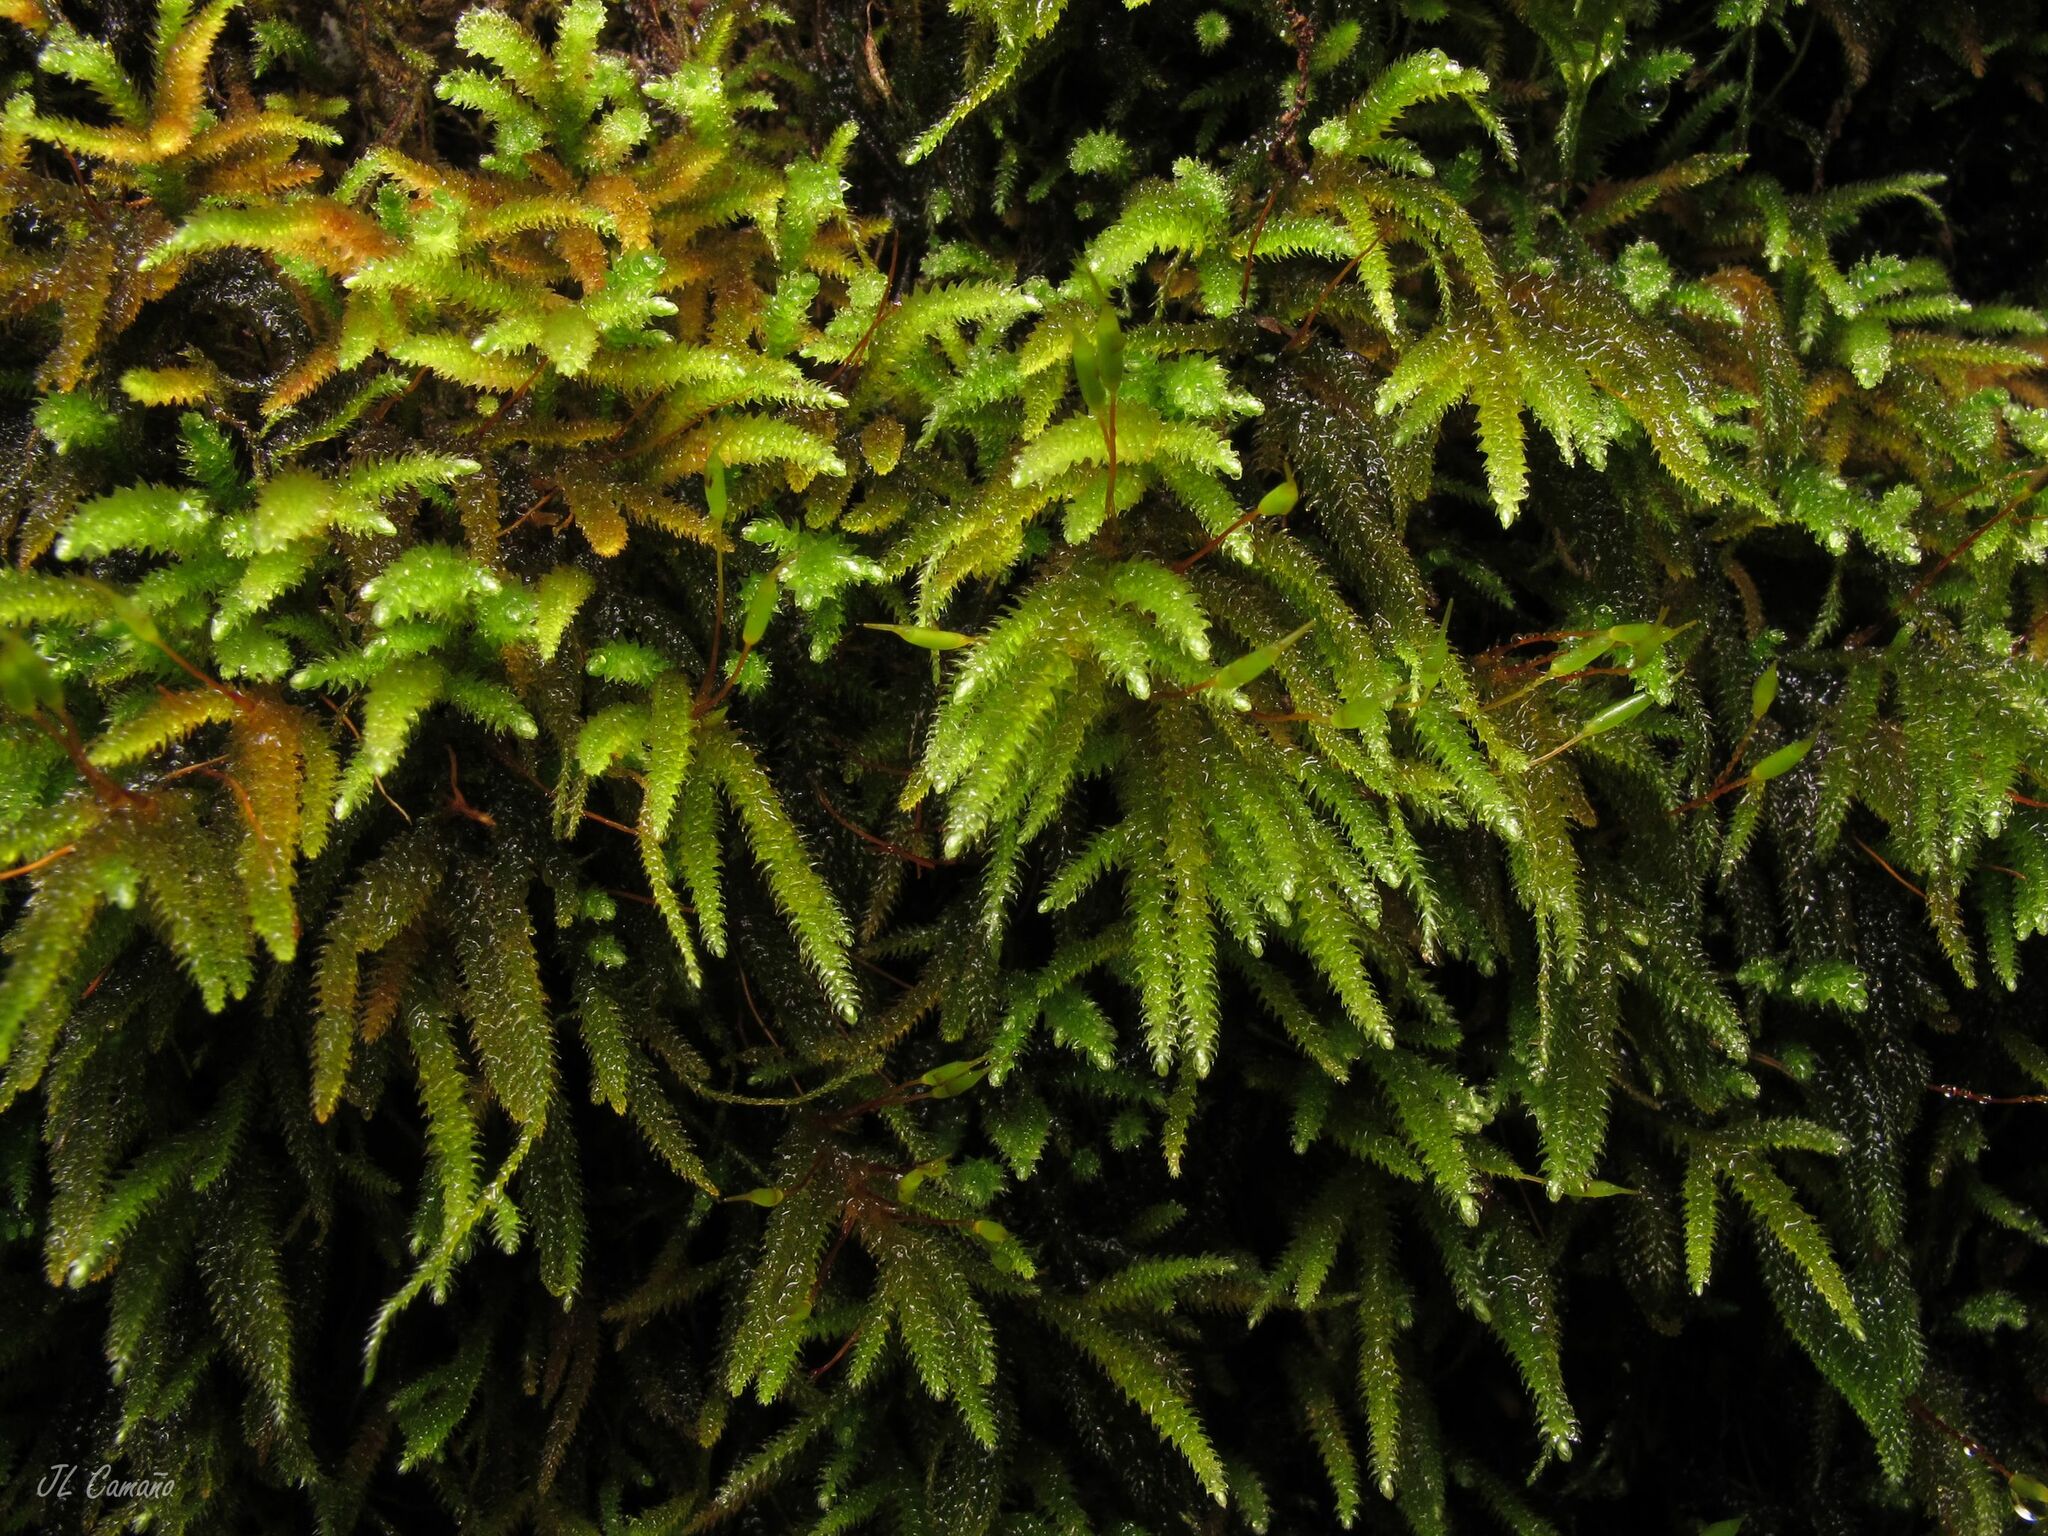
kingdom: Plantae
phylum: Bryophyta
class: Bryopsida
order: Hypnales
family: Lembophyllaceae
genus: Nogopterium
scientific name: Nogopterium gracile
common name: Bird's-foot wing-moss
